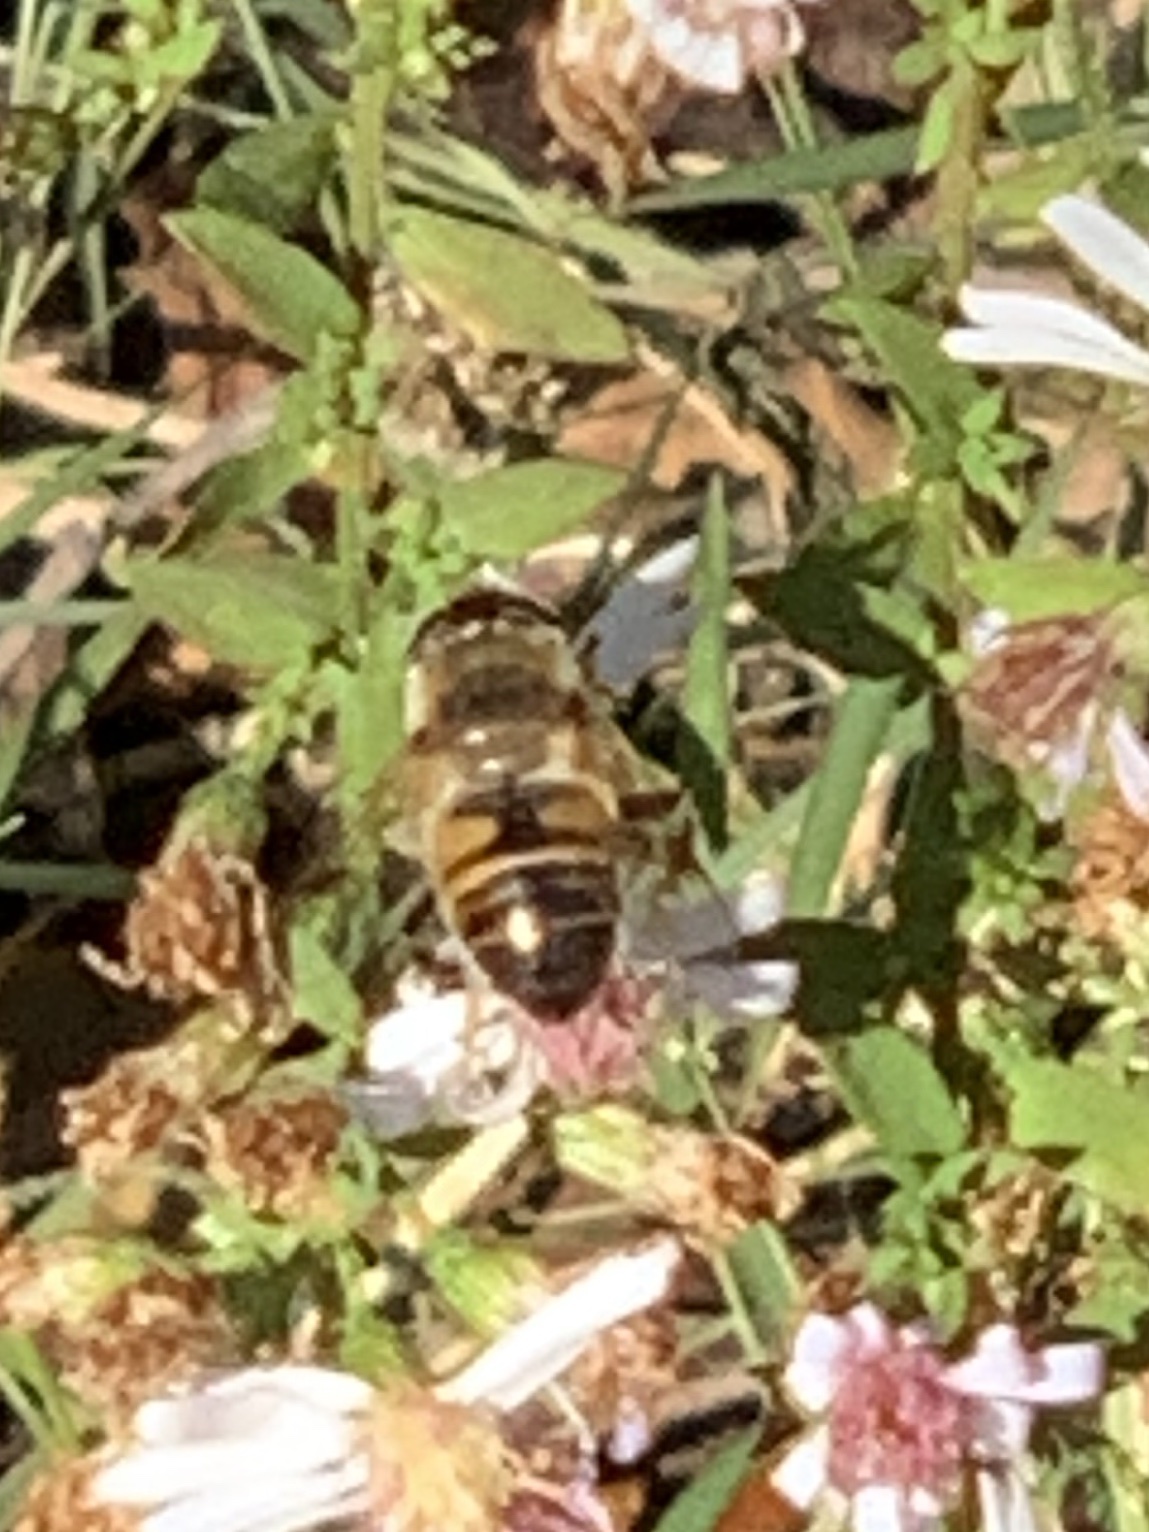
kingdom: Animalia
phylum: Arthropoda
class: Insecta
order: Diptera
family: Syrphidae
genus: Eristalis
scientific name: Eristalis tenax
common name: Drone fly
